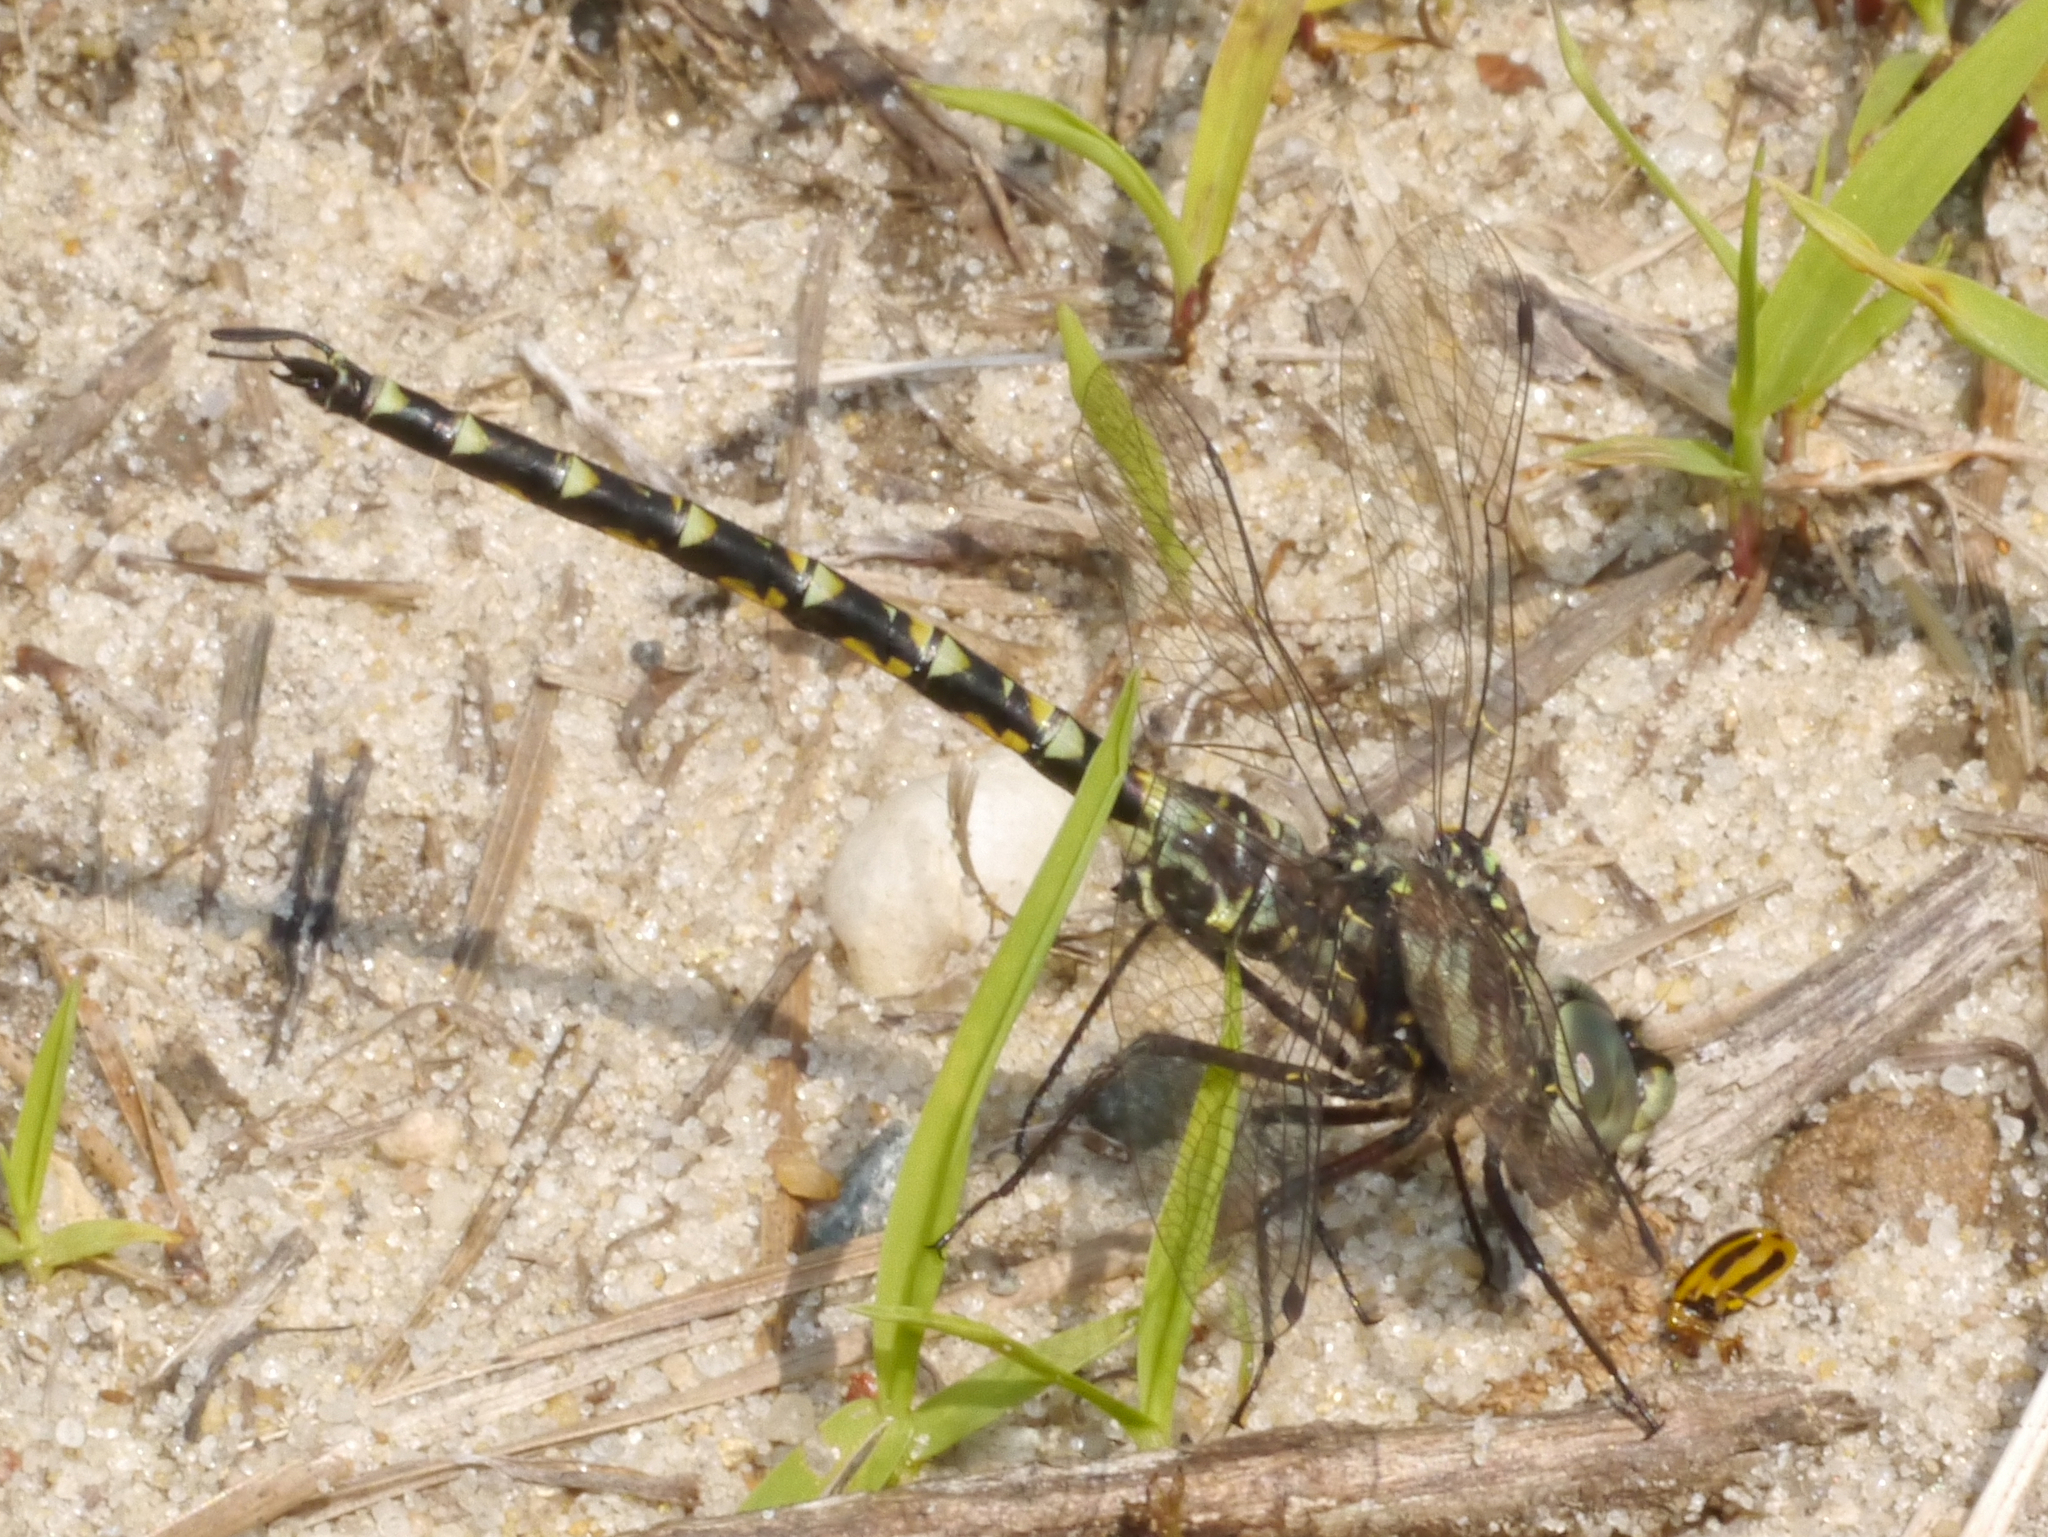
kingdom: Animalia
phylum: Arthropoda
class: Insecta
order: Odonata
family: Aeshnidae
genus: Gomphaeschna
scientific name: Gomphaeschna furcillata
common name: Harlequin darner
